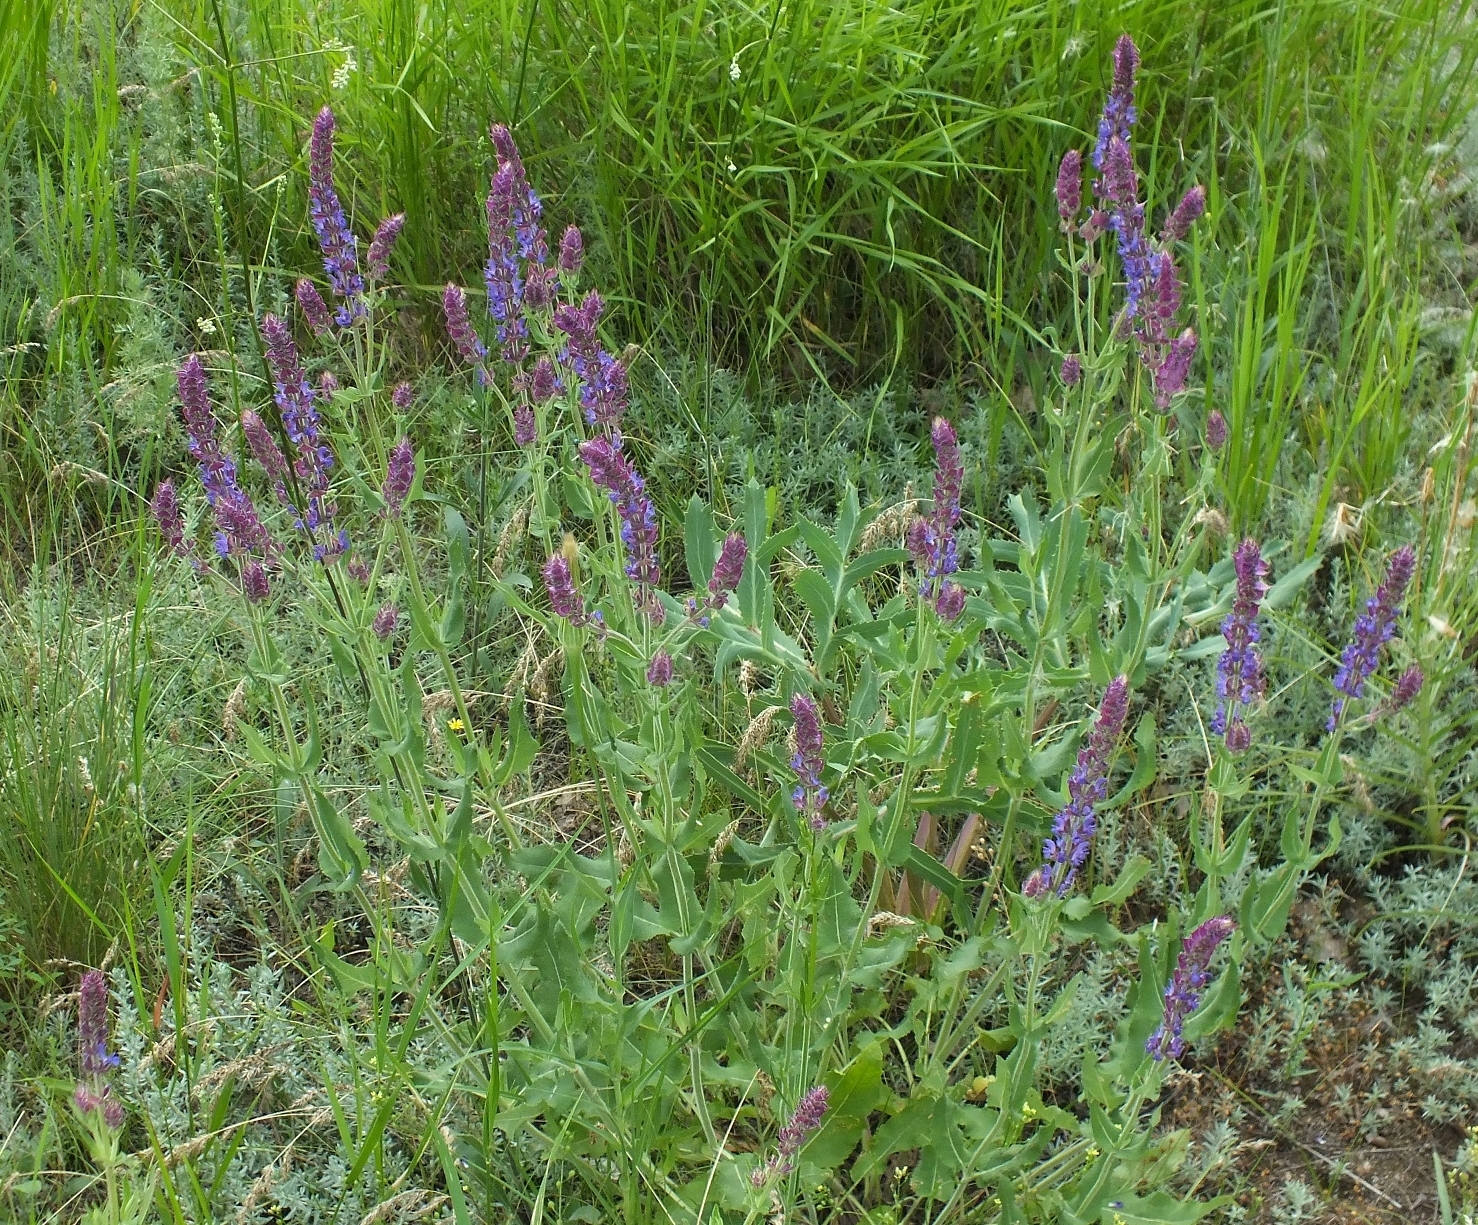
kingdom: Plantae
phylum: Tracheophyta
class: Magnoliopsida
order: Lamiales
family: Lamiaceae
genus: Salvia
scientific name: Salvia nemorosa
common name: Balkan clary
